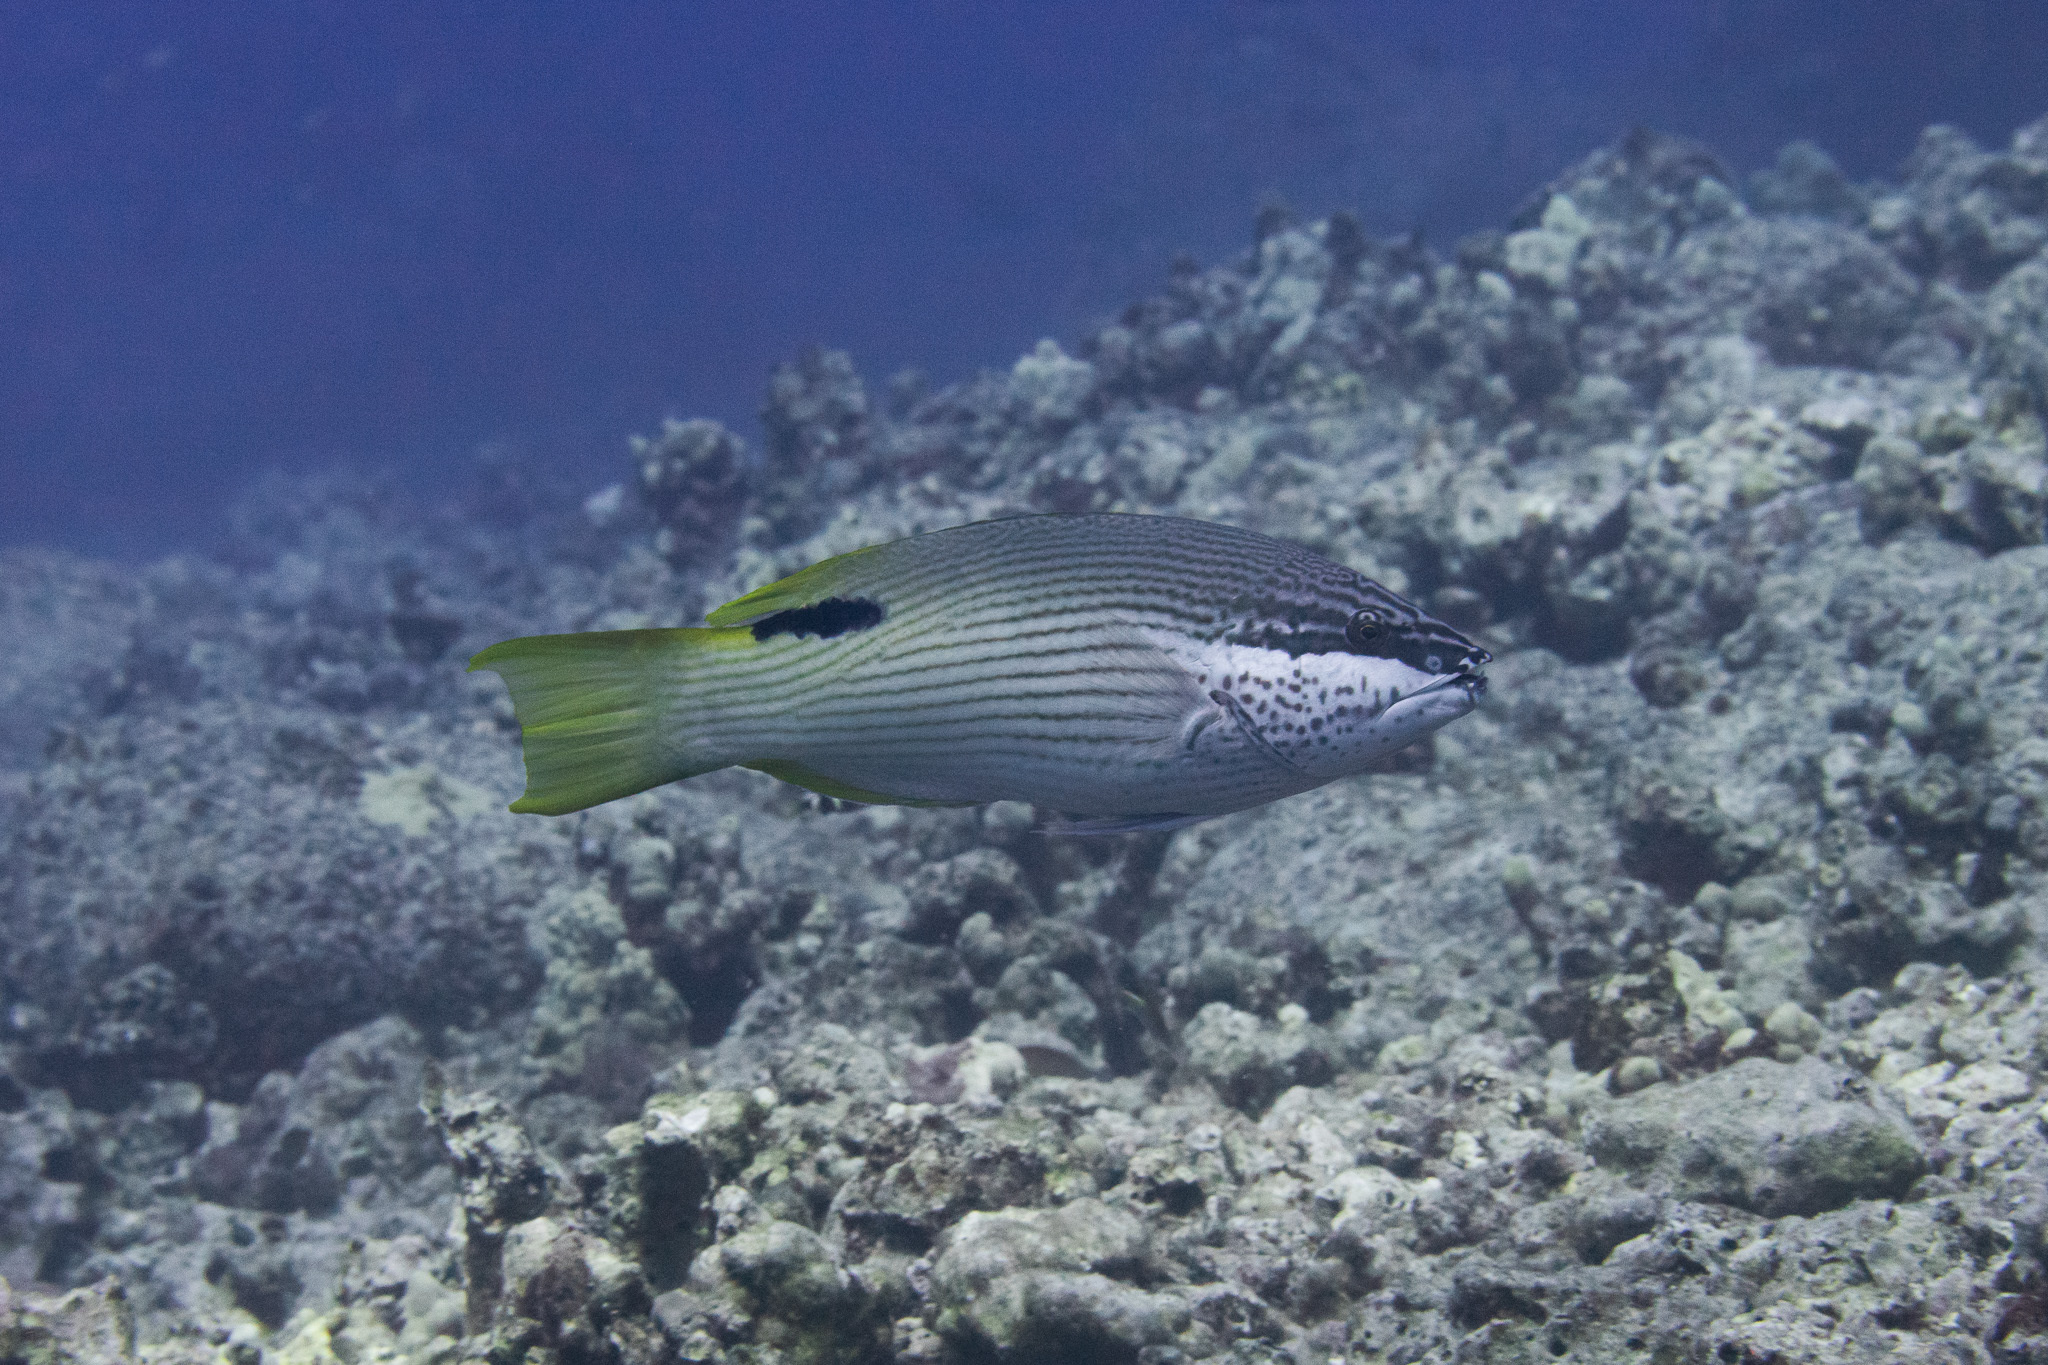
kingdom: Animalia
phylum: Chordata
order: Perciformes
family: Labridae
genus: Bodianus
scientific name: Bodianus albotaeniatus
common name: Hawaiian hogfish
